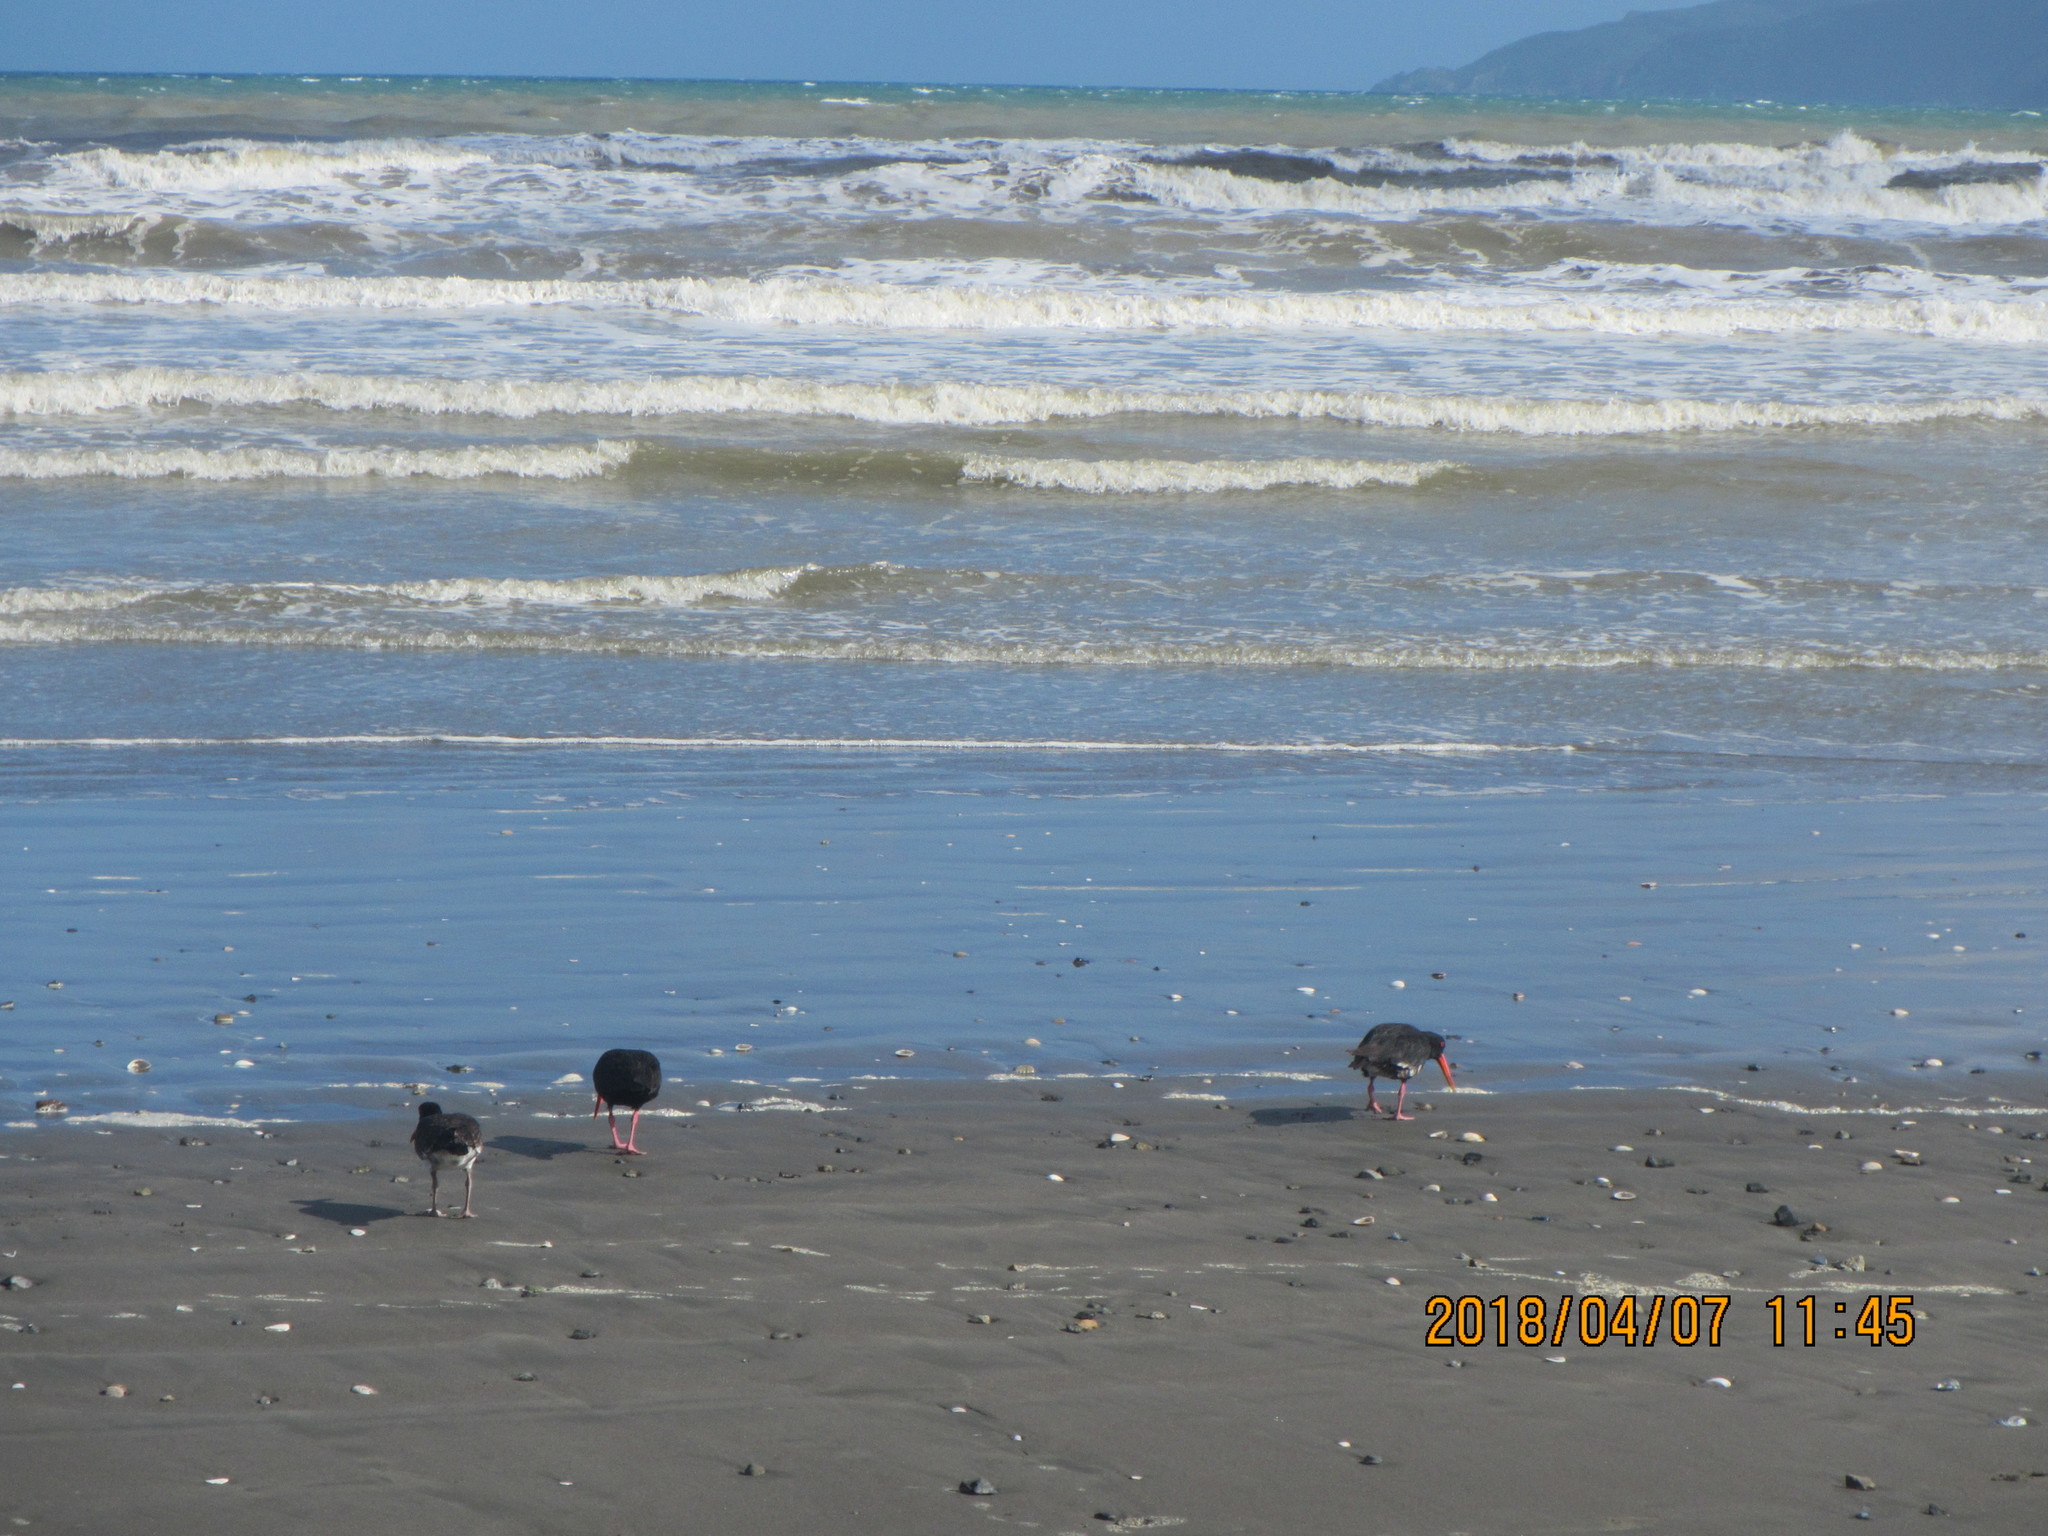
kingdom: Animalia
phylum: Chordata
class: Aves
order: Charadriiformes
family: Haematopodidae
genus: Haematopus
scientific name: Haematopus unicolor
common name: Variable oystercatcher
